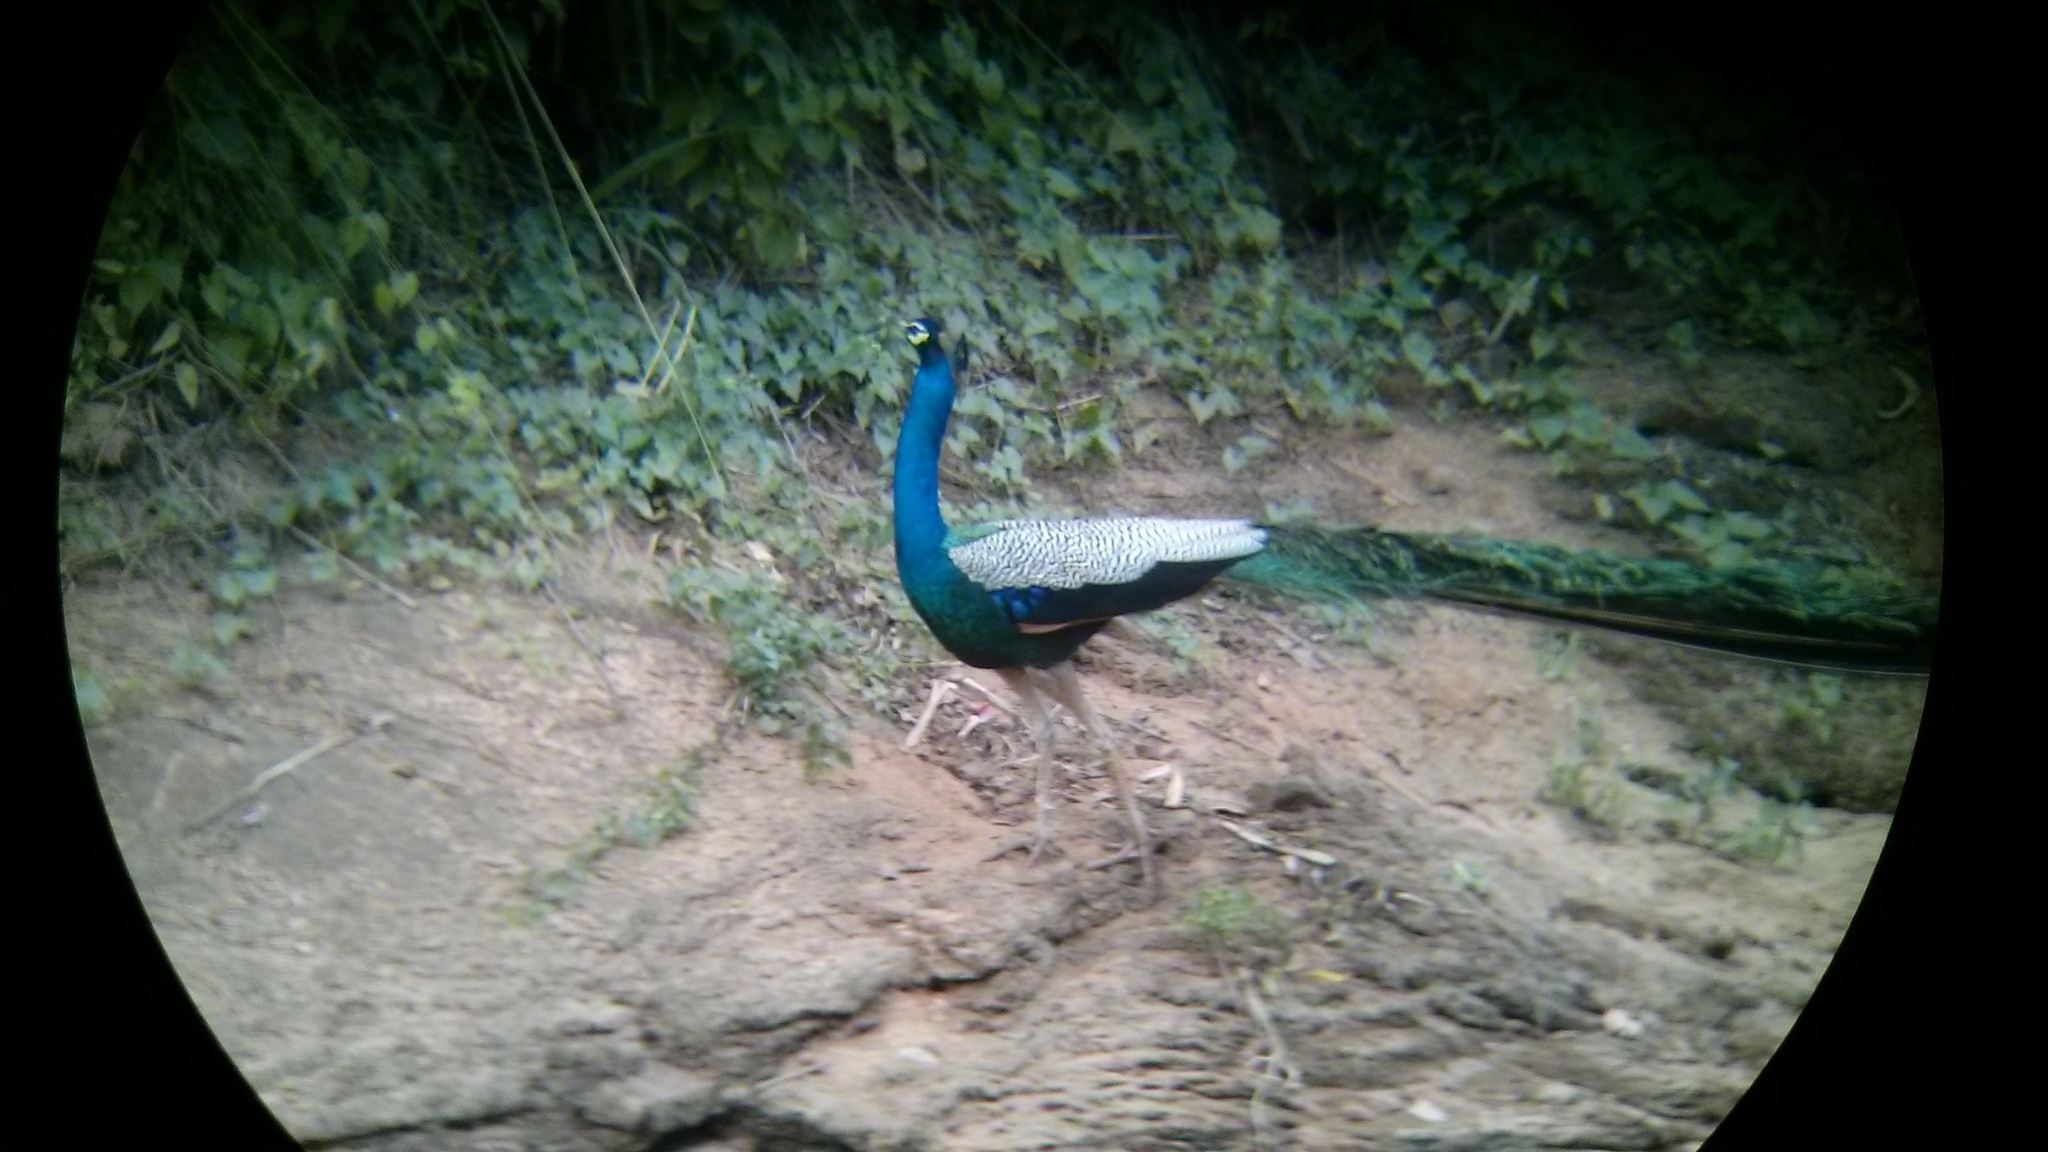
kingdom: Animalia
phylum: Chordata
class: Aves
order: Galliformes
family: Phasianidae
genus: Pavo
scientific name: Pavo cristatus
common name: Indian peafowl
